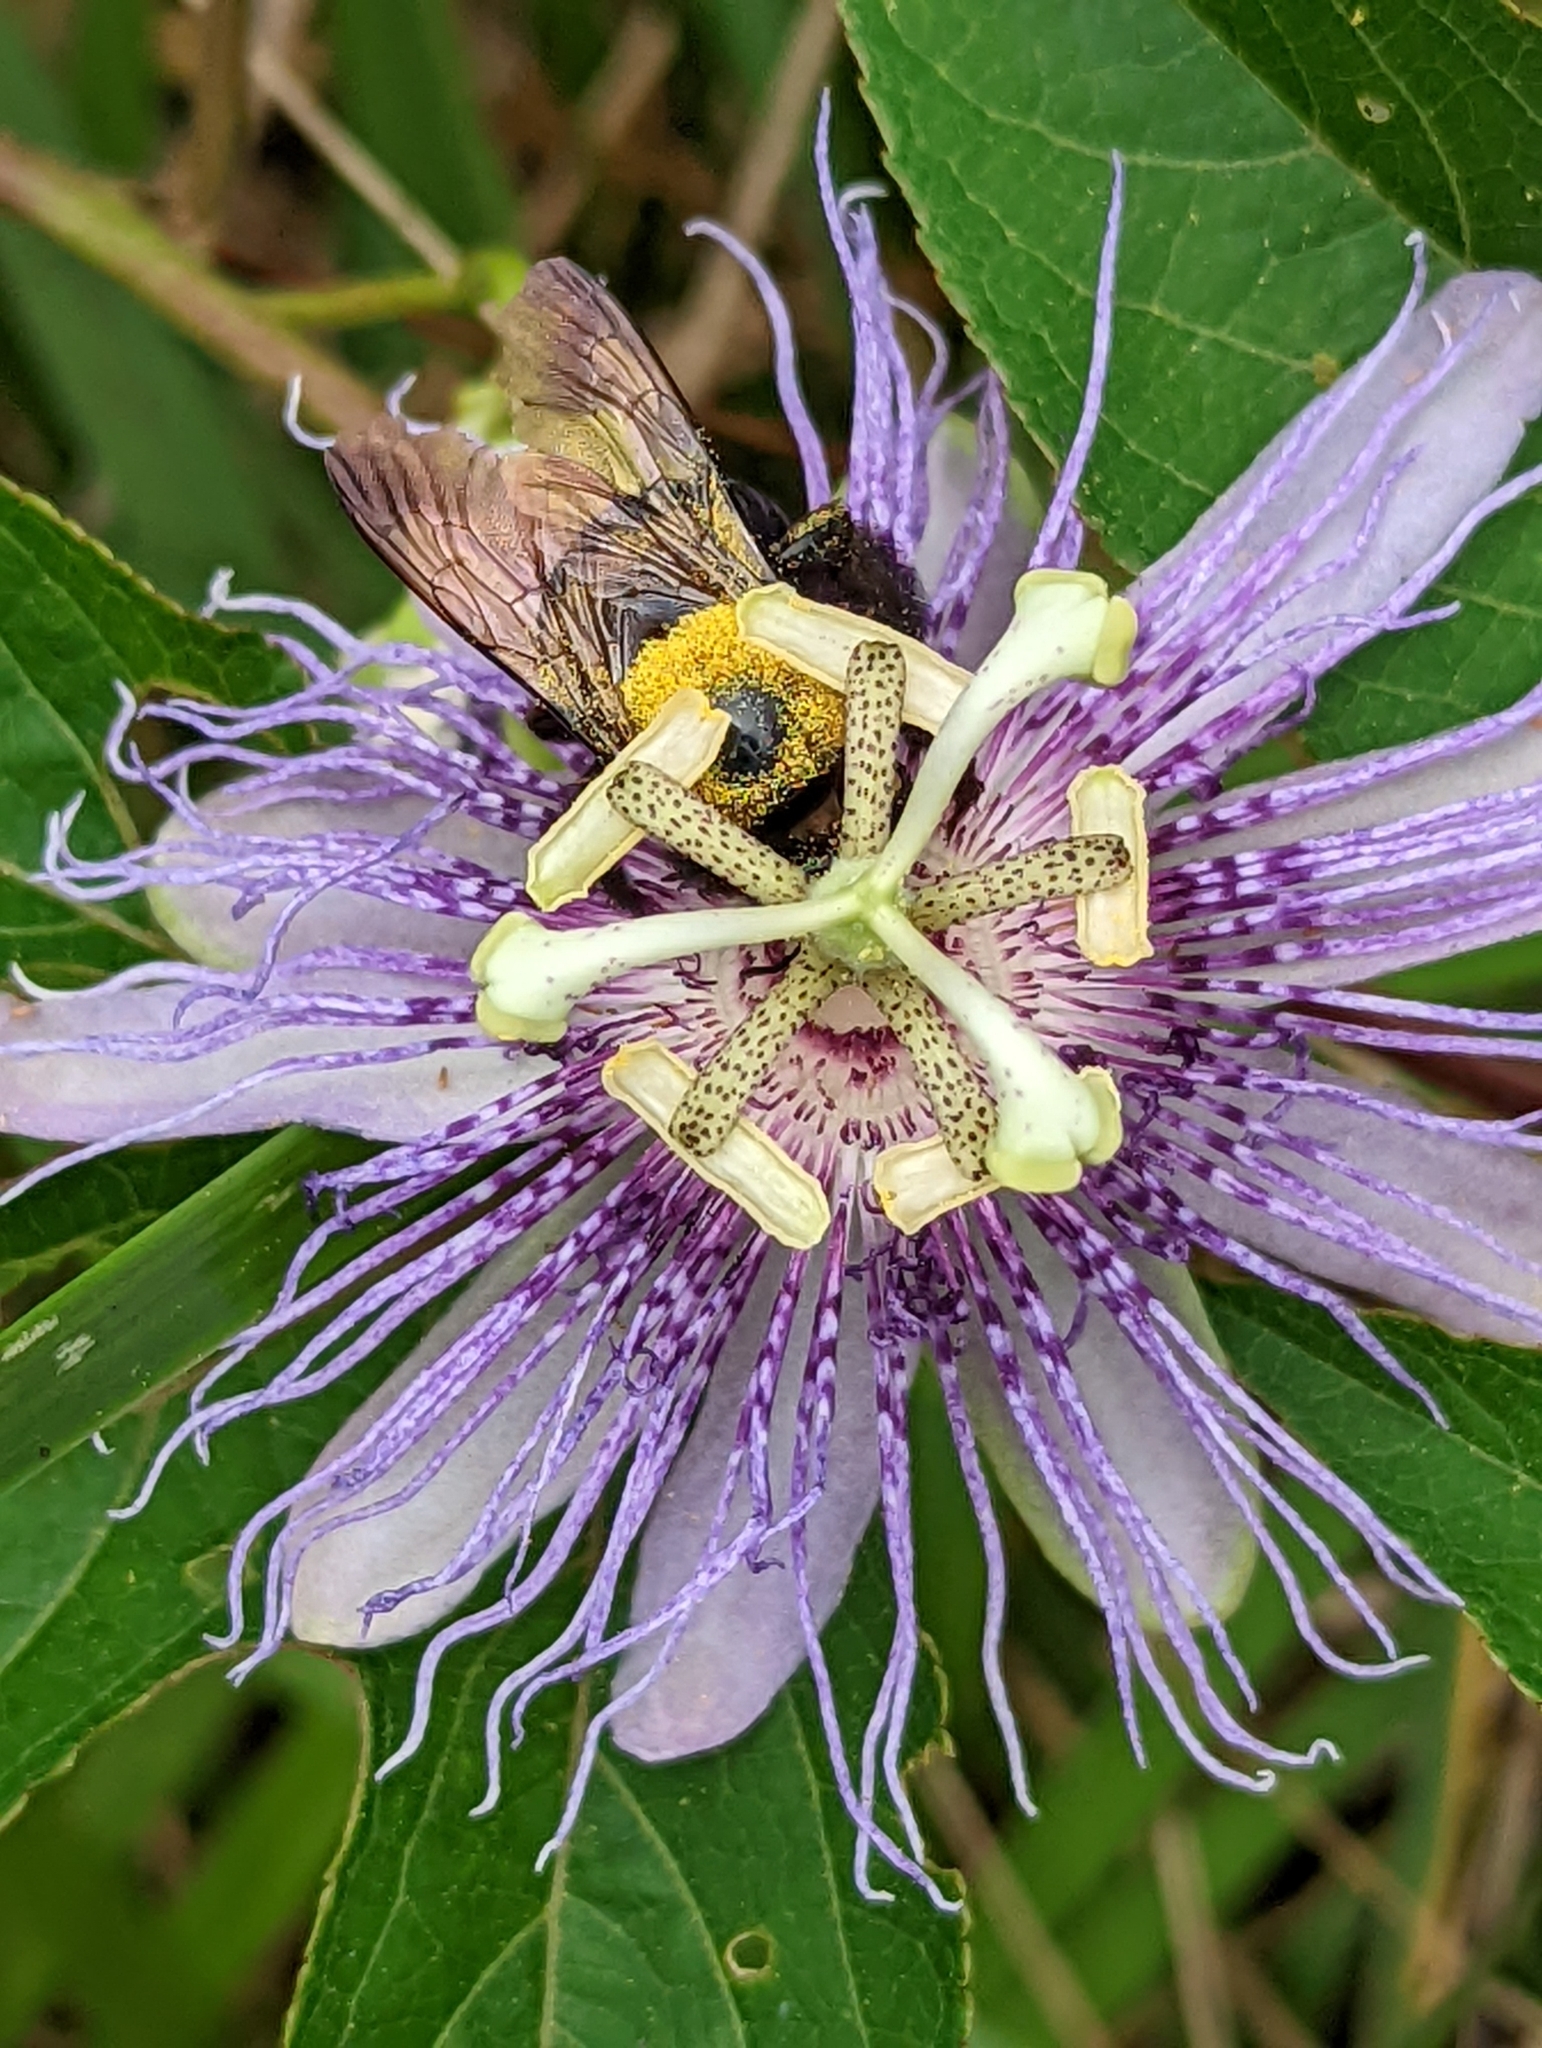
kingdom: Animalia
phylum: Arthropoda
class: Insecta
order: Hymenoptera
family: Apidae
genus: Xylocopa
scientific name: Xylocopa virginica
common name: Carpenter bee
